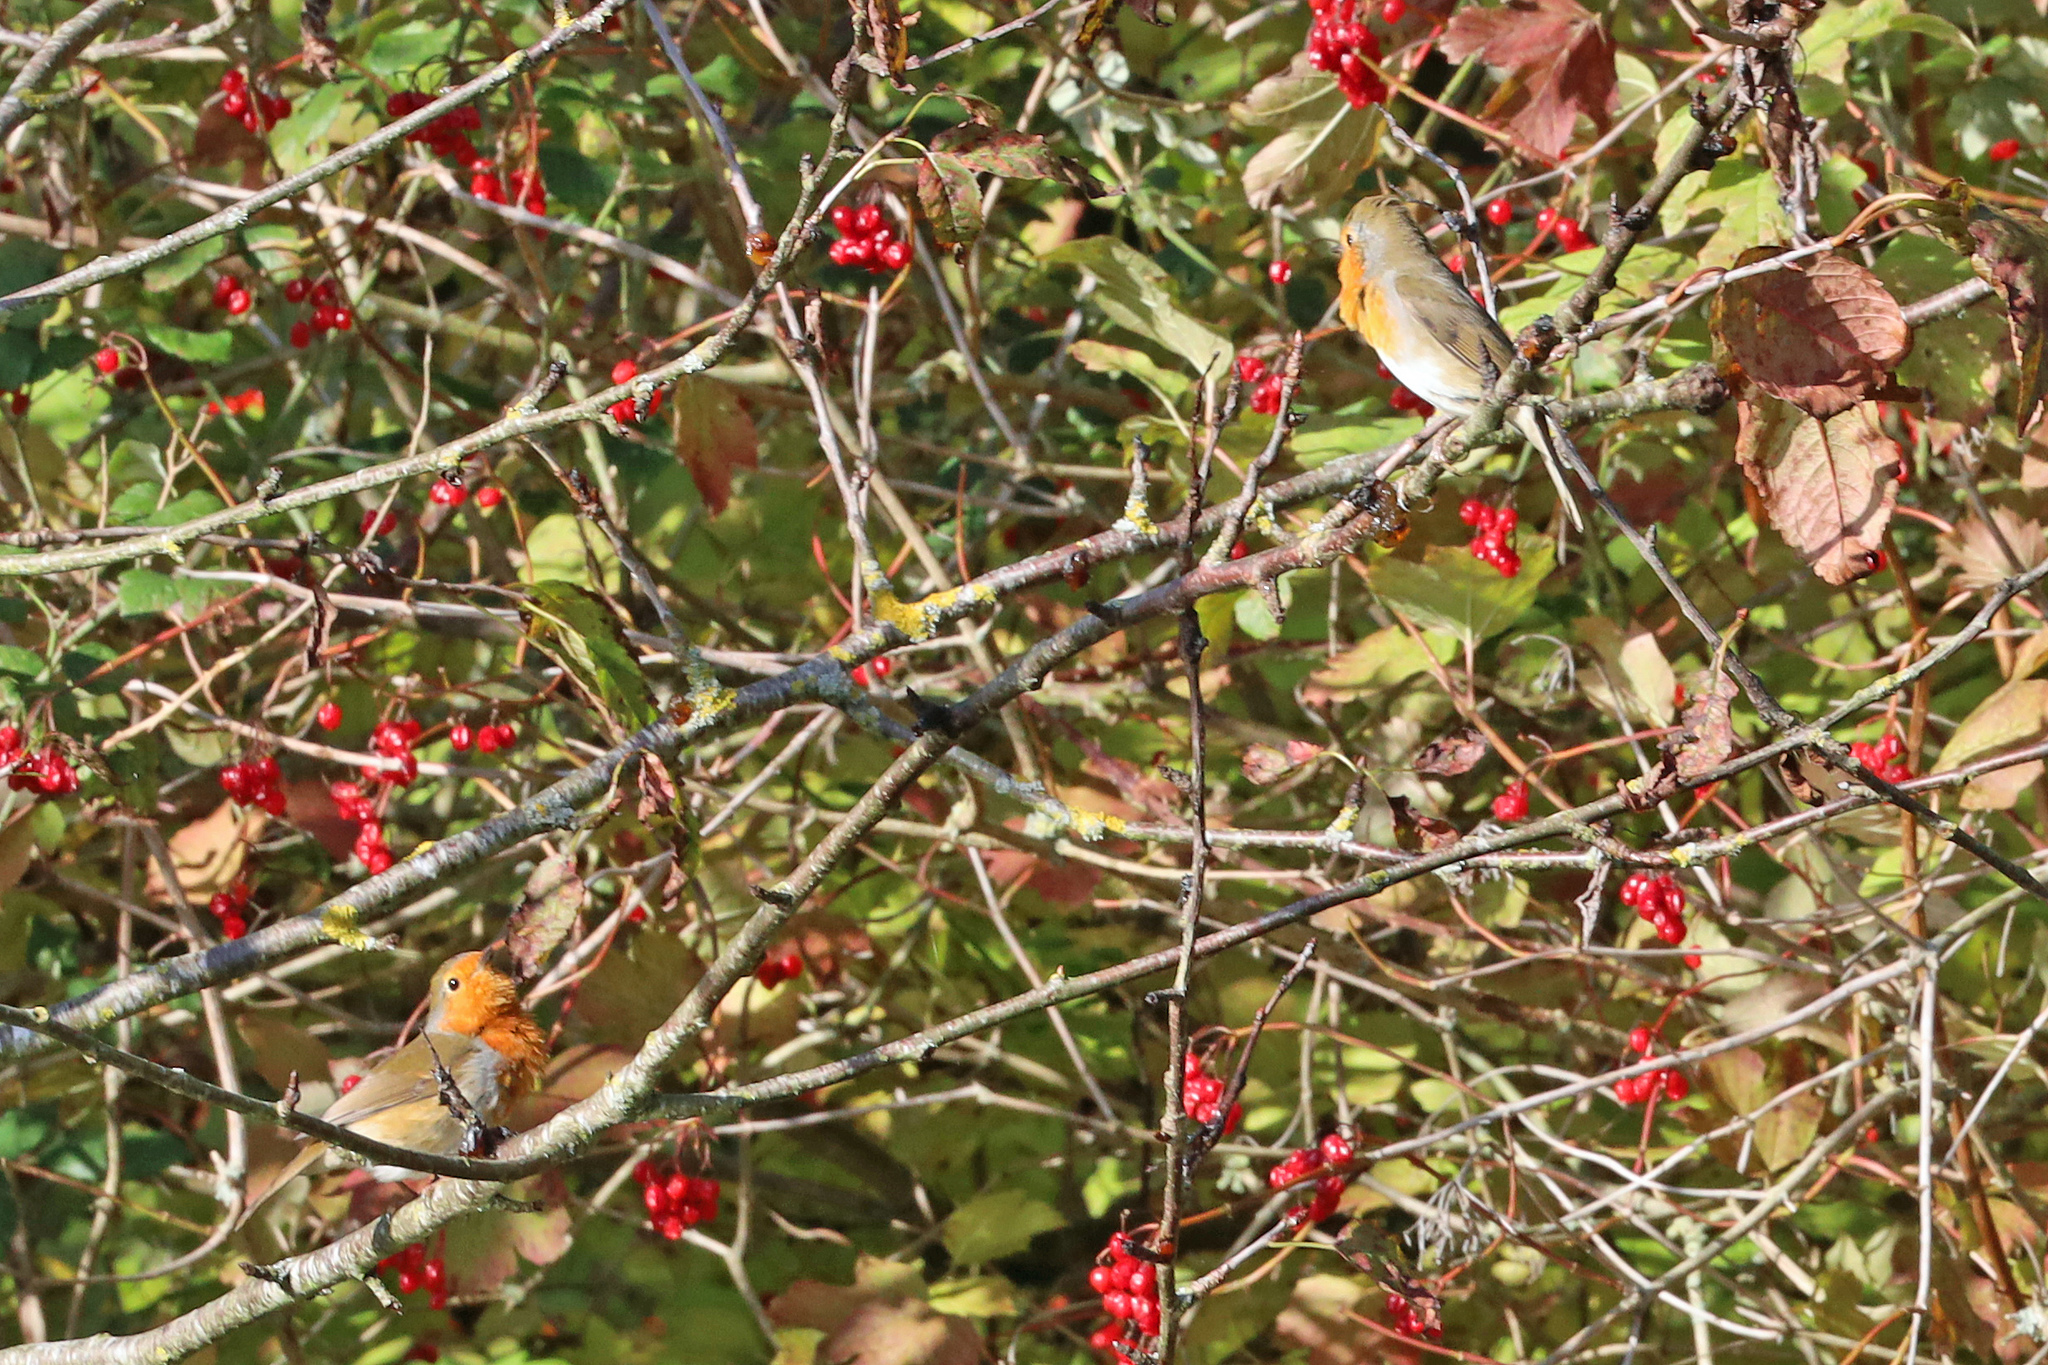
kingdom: Animalia
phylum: Chordata
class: Aves
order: Passeriformes
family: Muscicapidae
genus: Erithacus
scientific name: Erithacus rubecula
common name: European robin
